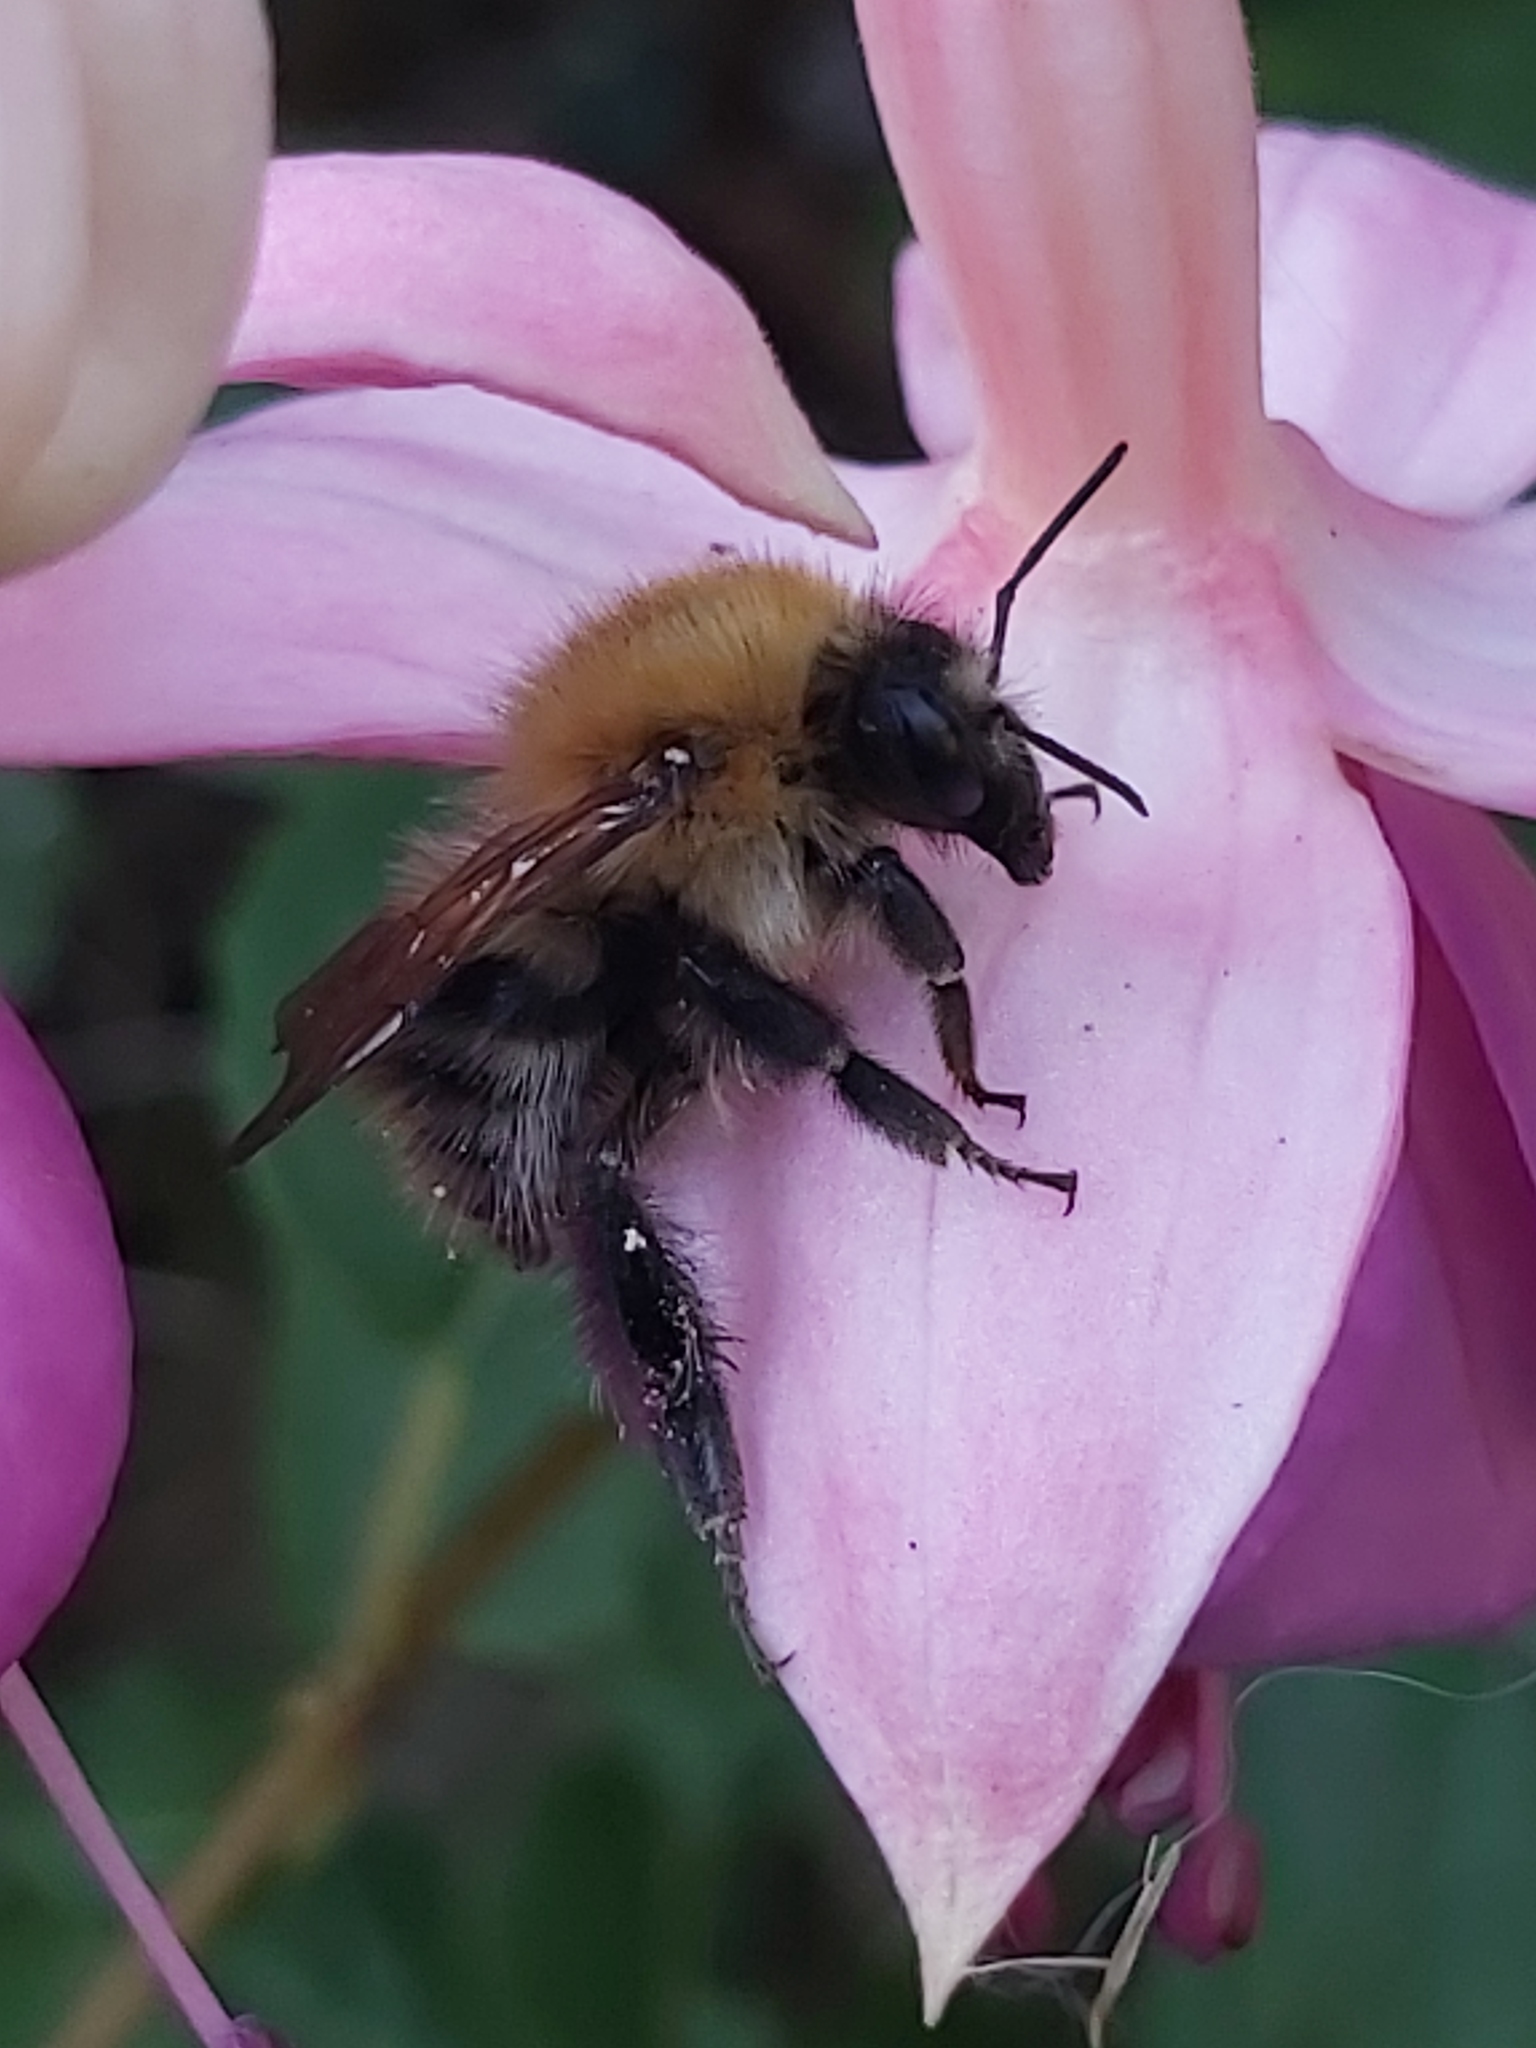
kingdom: Animalia
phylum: Arthropoda
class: Insecta
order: Hymenoptera
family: Apidae
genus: Bombus
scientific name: Bombus pascuorum
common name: Common carder bee
